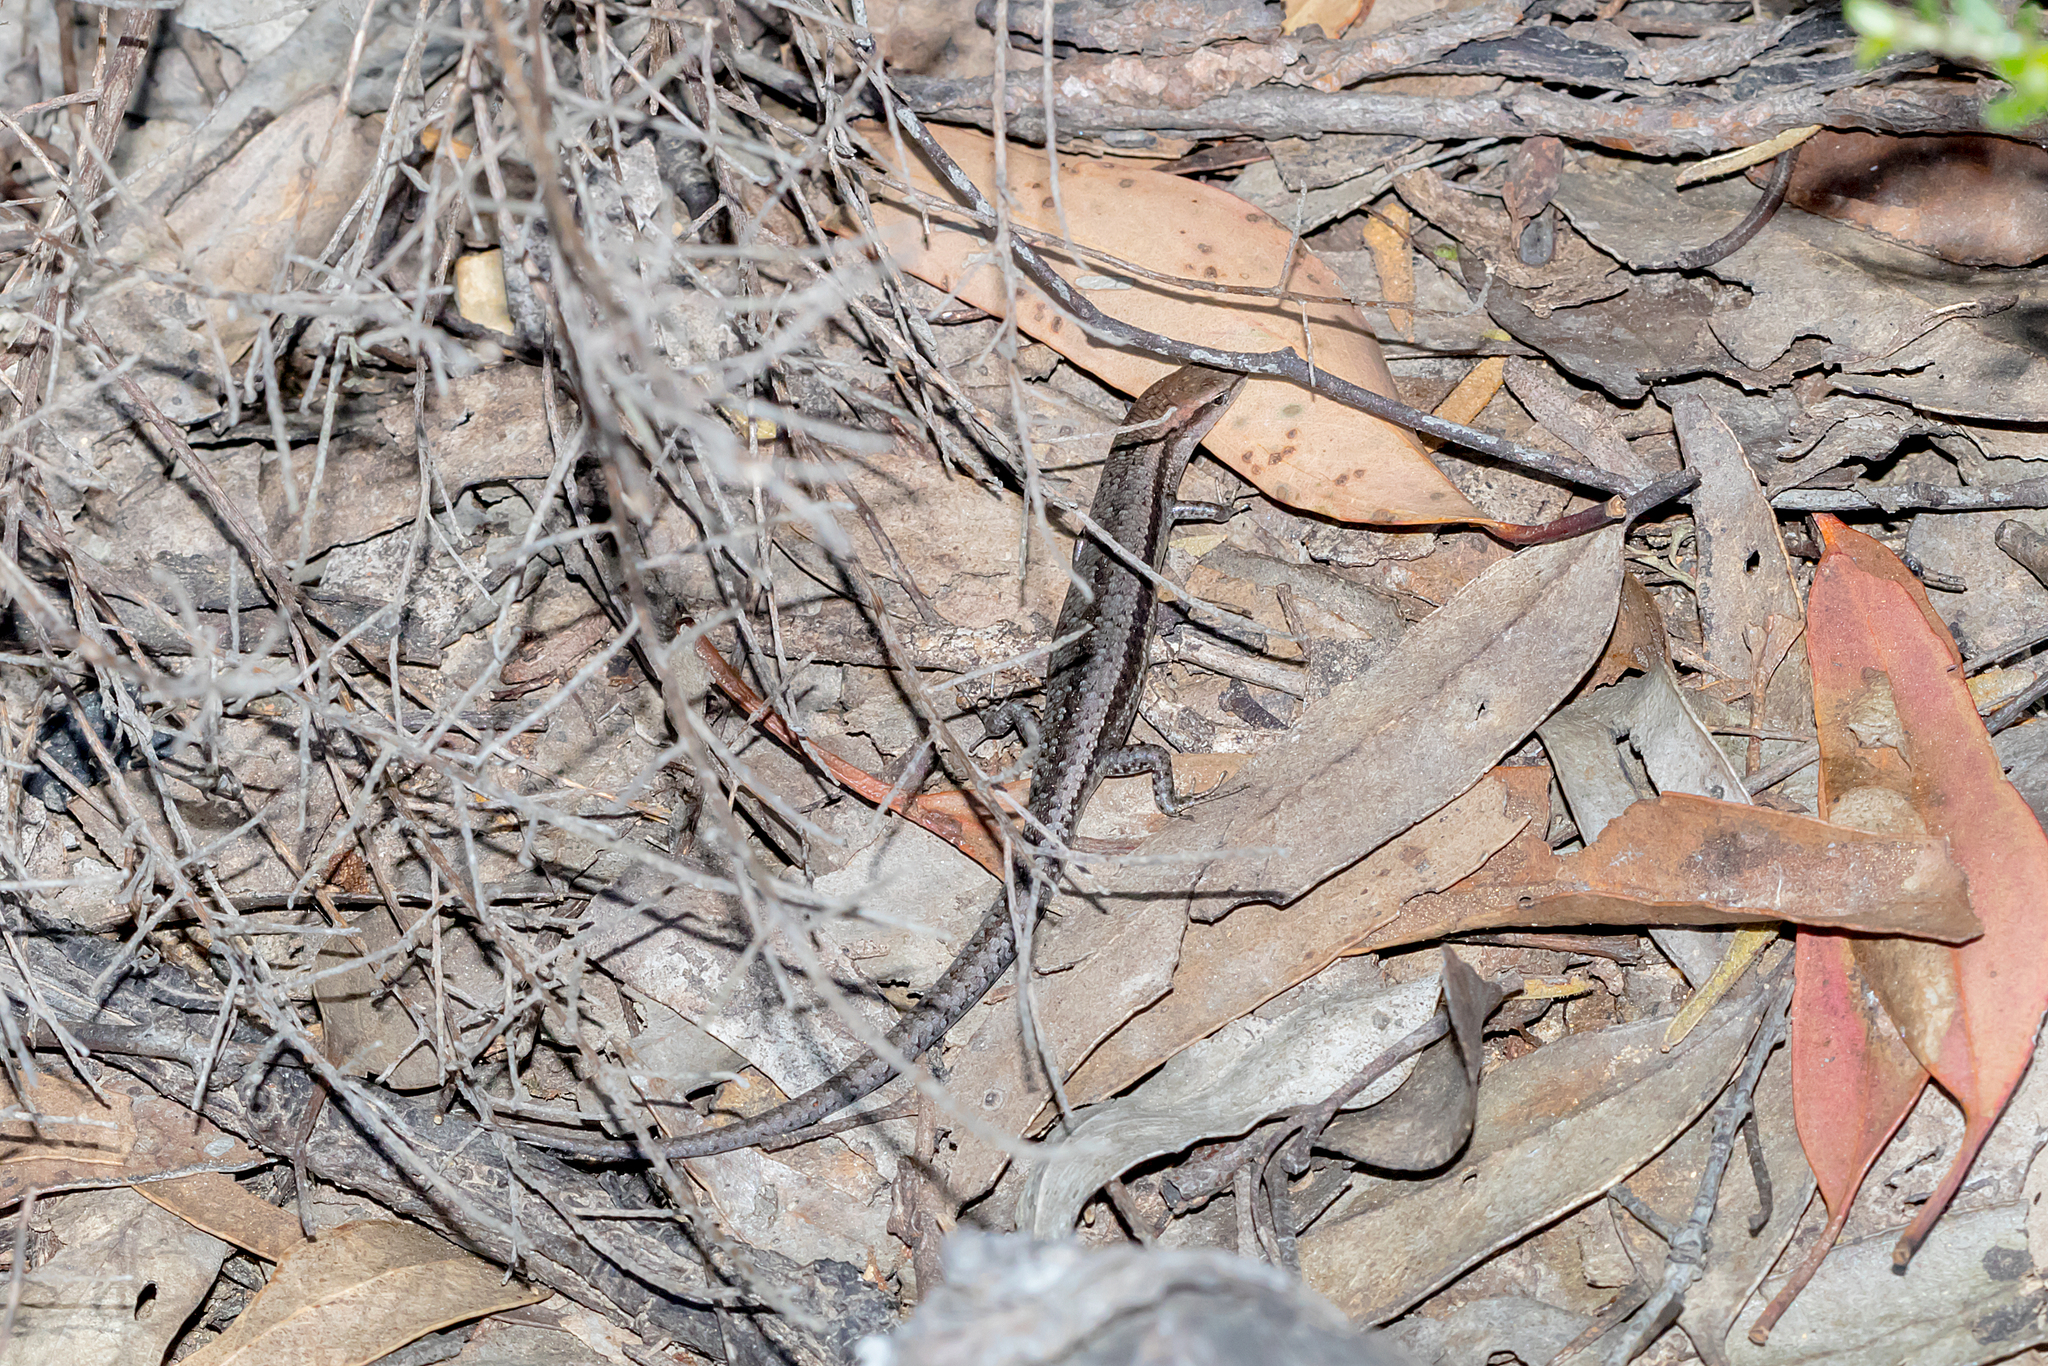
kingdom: Animalia
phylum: Chordata
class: Squamata
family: Scincidae
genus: Lampropholis
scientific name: Lampropholis guichenoti
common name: Garden skink
